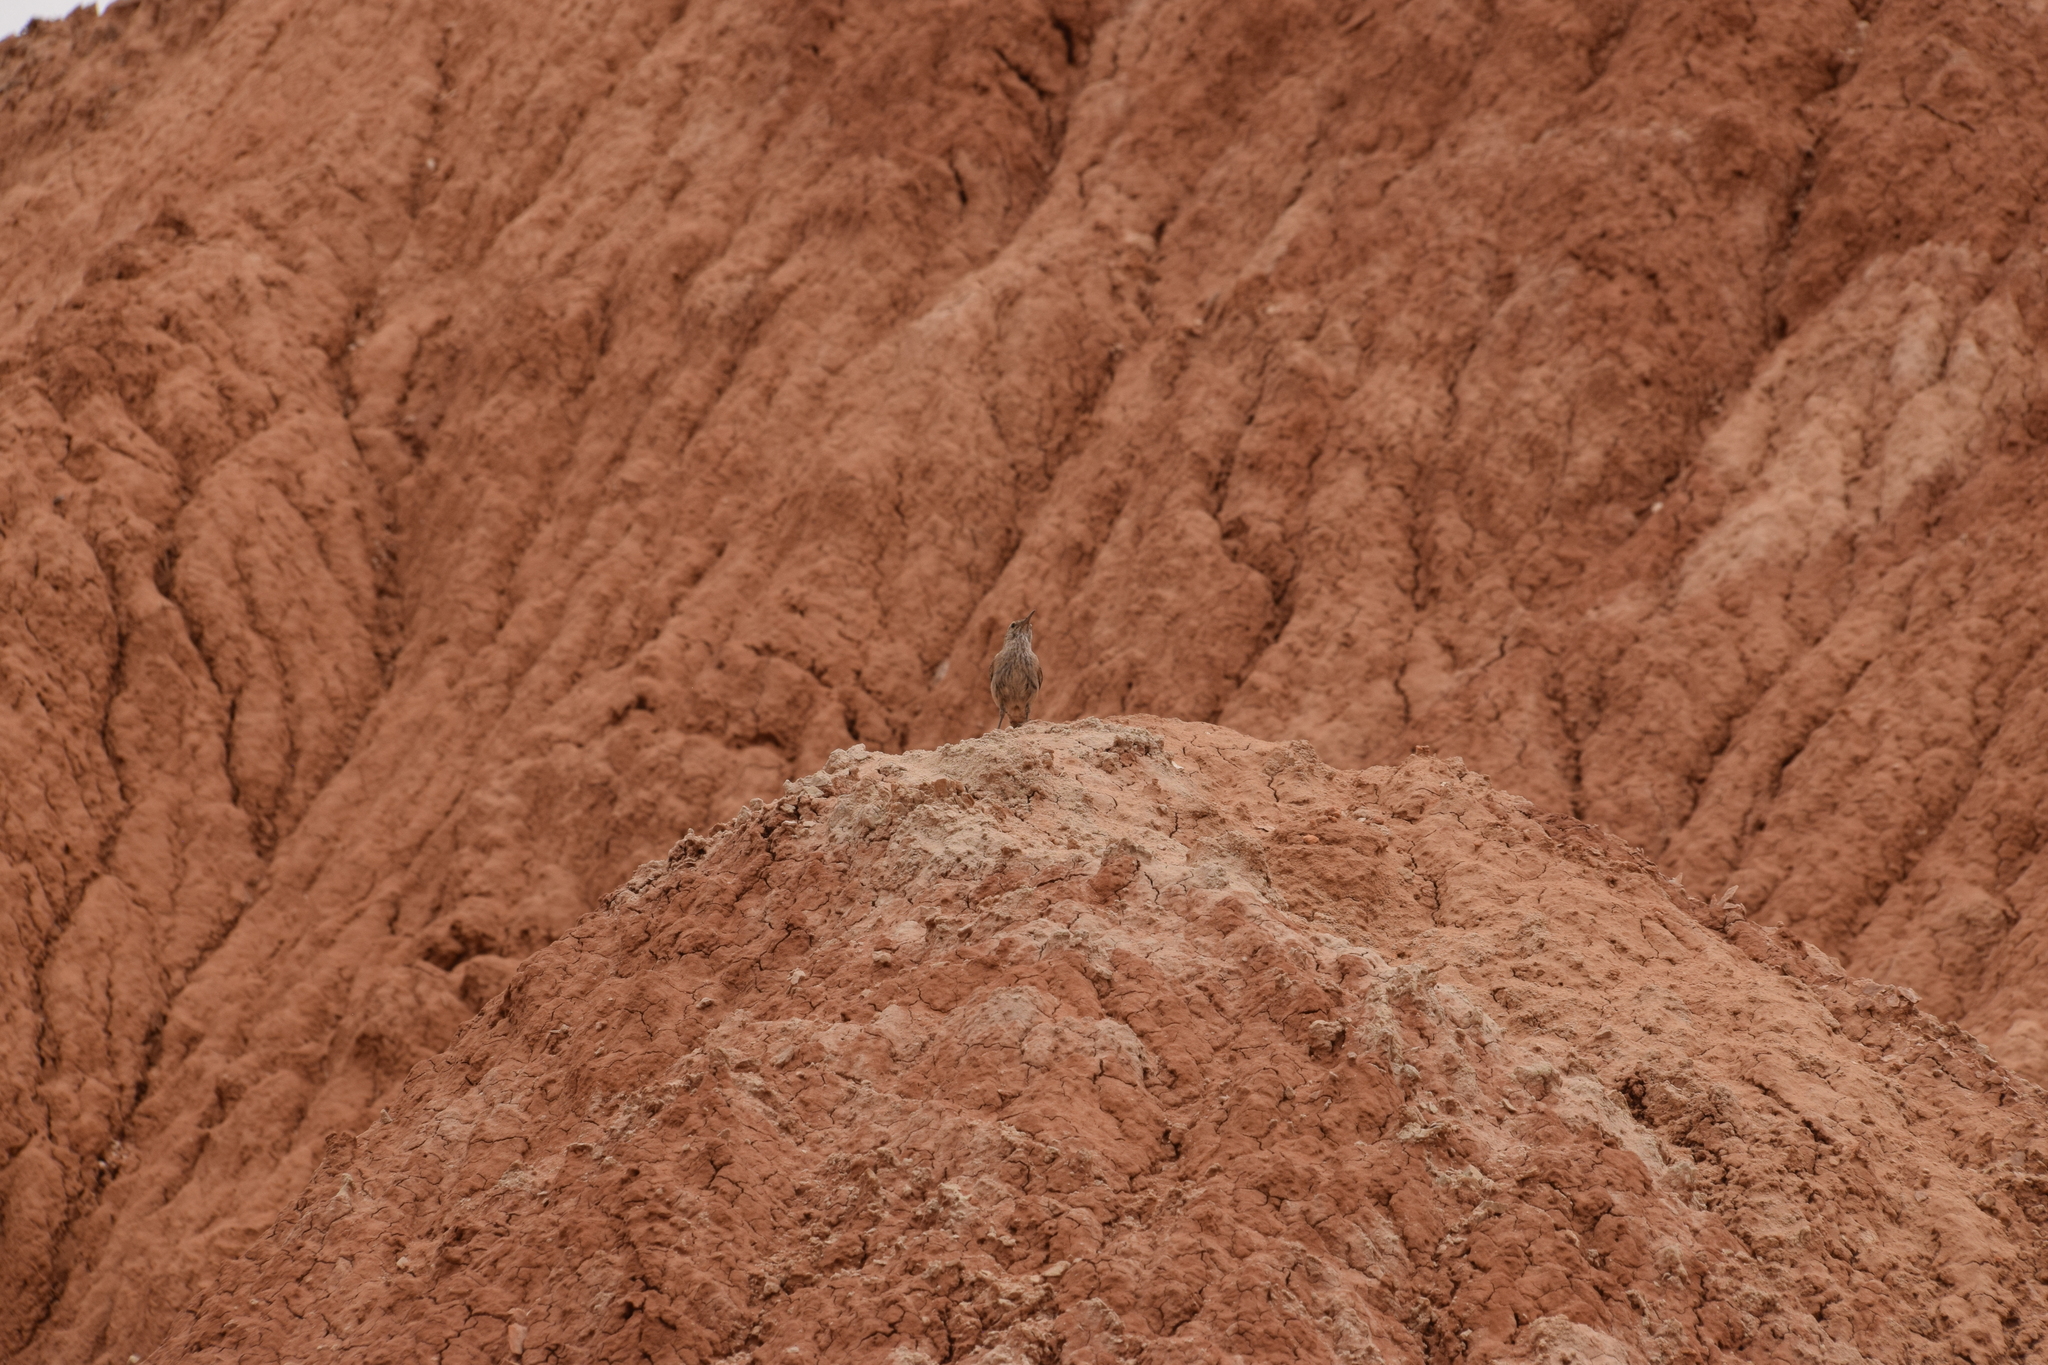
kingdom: Animalia
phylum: Chordata
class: Aves
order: Passeriformes
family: Troglodytidae
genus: Salpinctes
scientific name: Salpinctes obsoletus
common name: Rock wren
